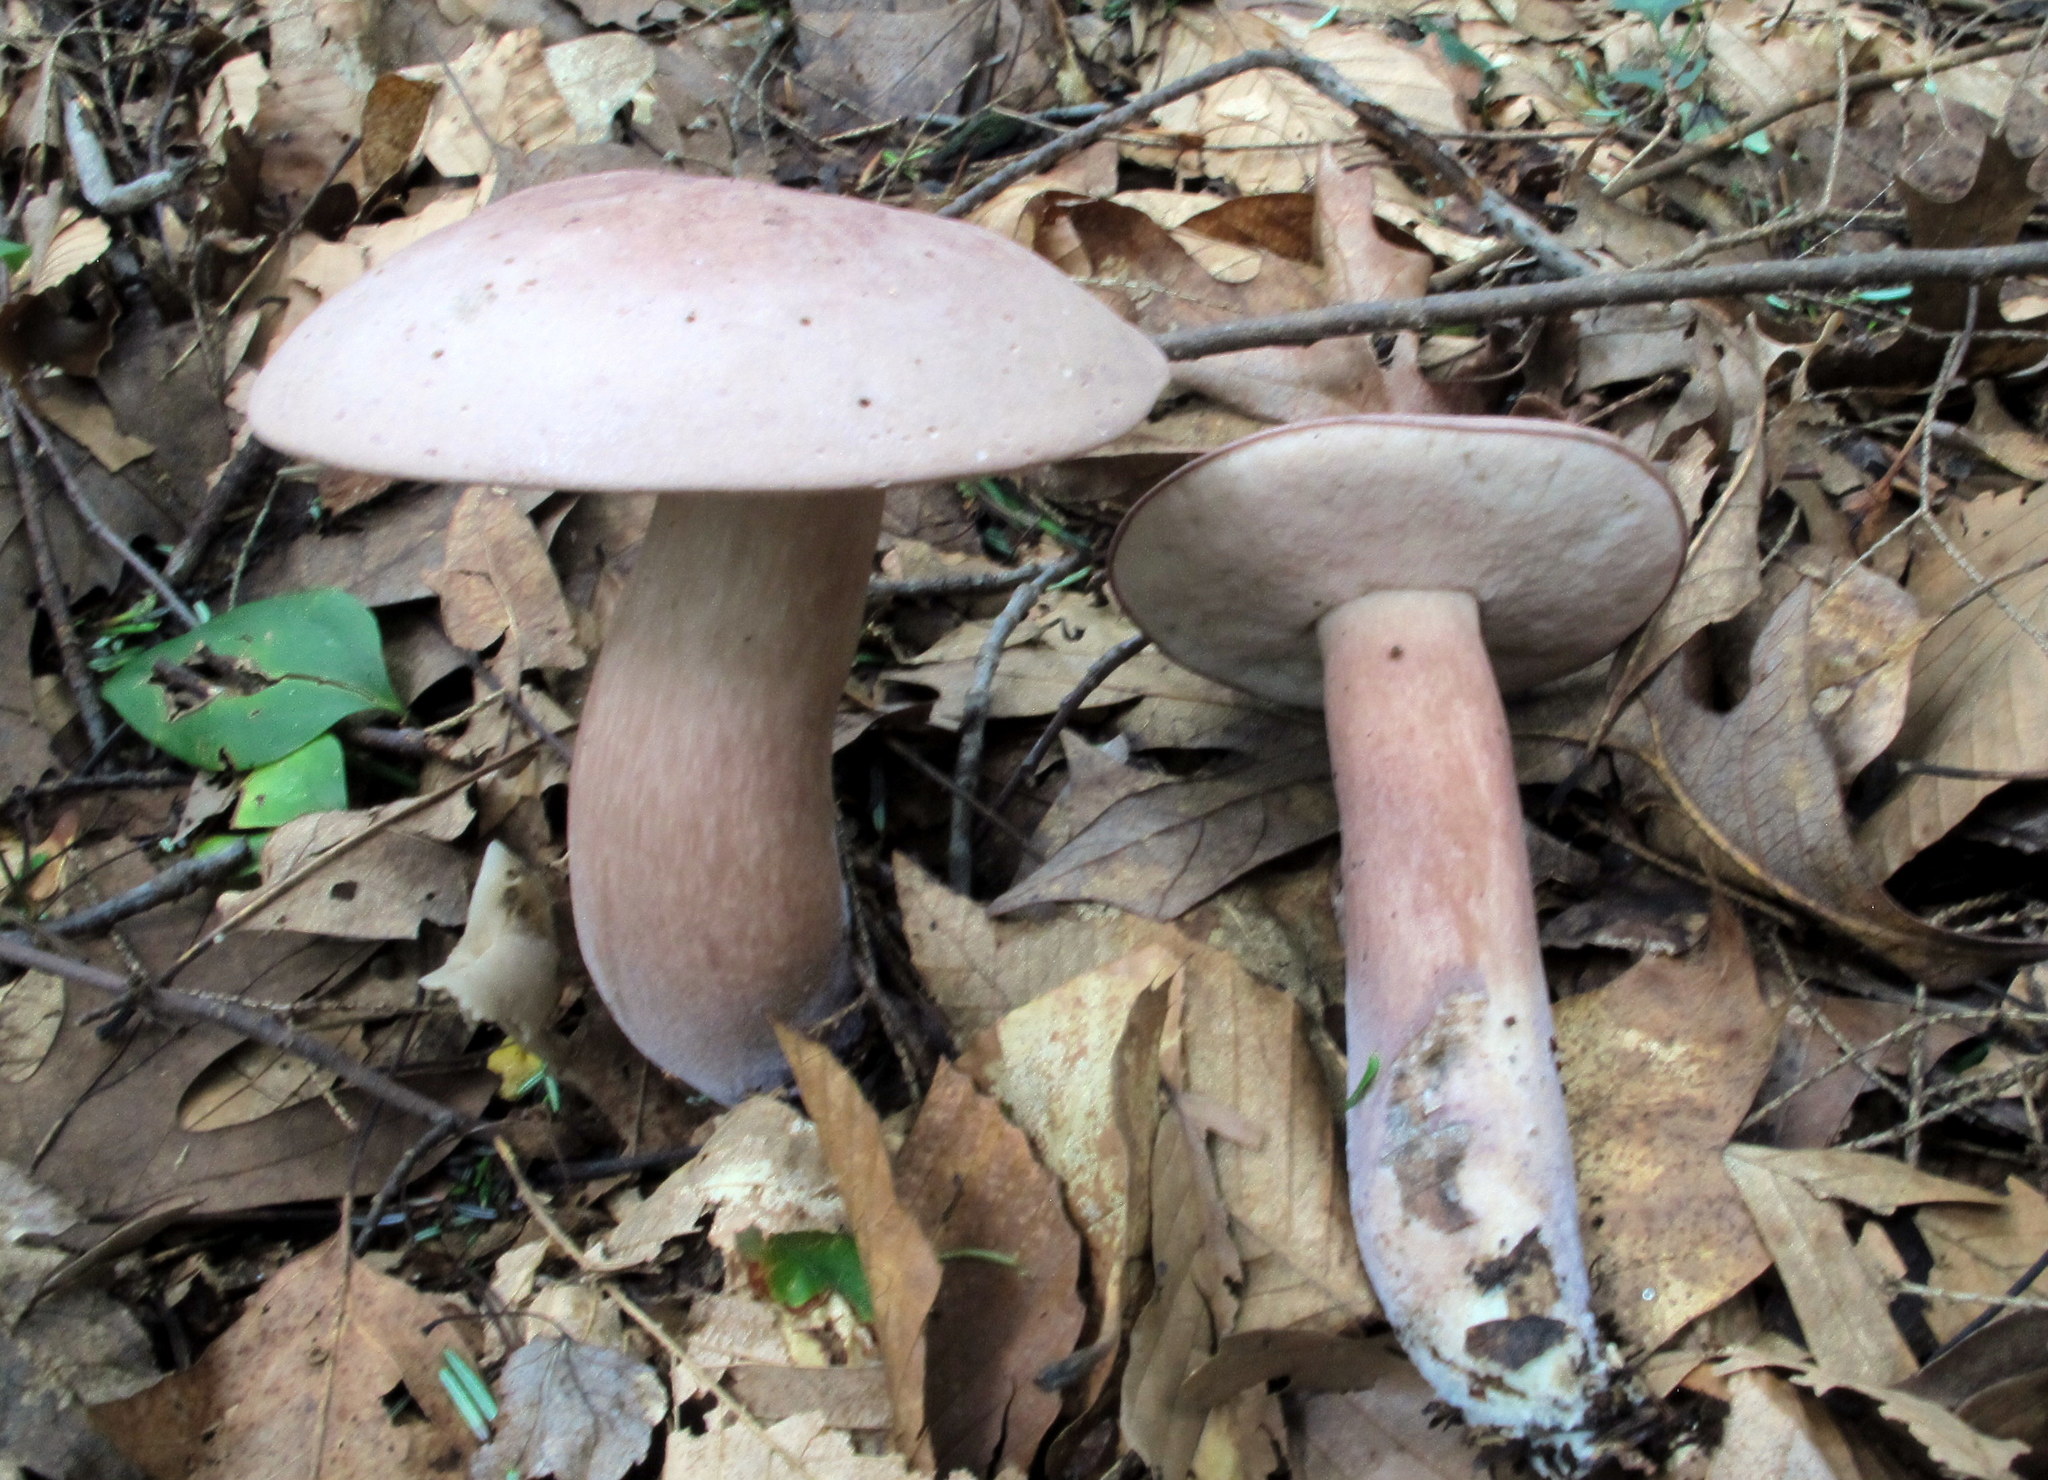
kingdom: Fungi
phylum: Basidiomycota
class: Agaricomycetes
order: Boletales
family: Boletaceae
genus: Tylopilus
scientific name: Tylopilus violatinctus
